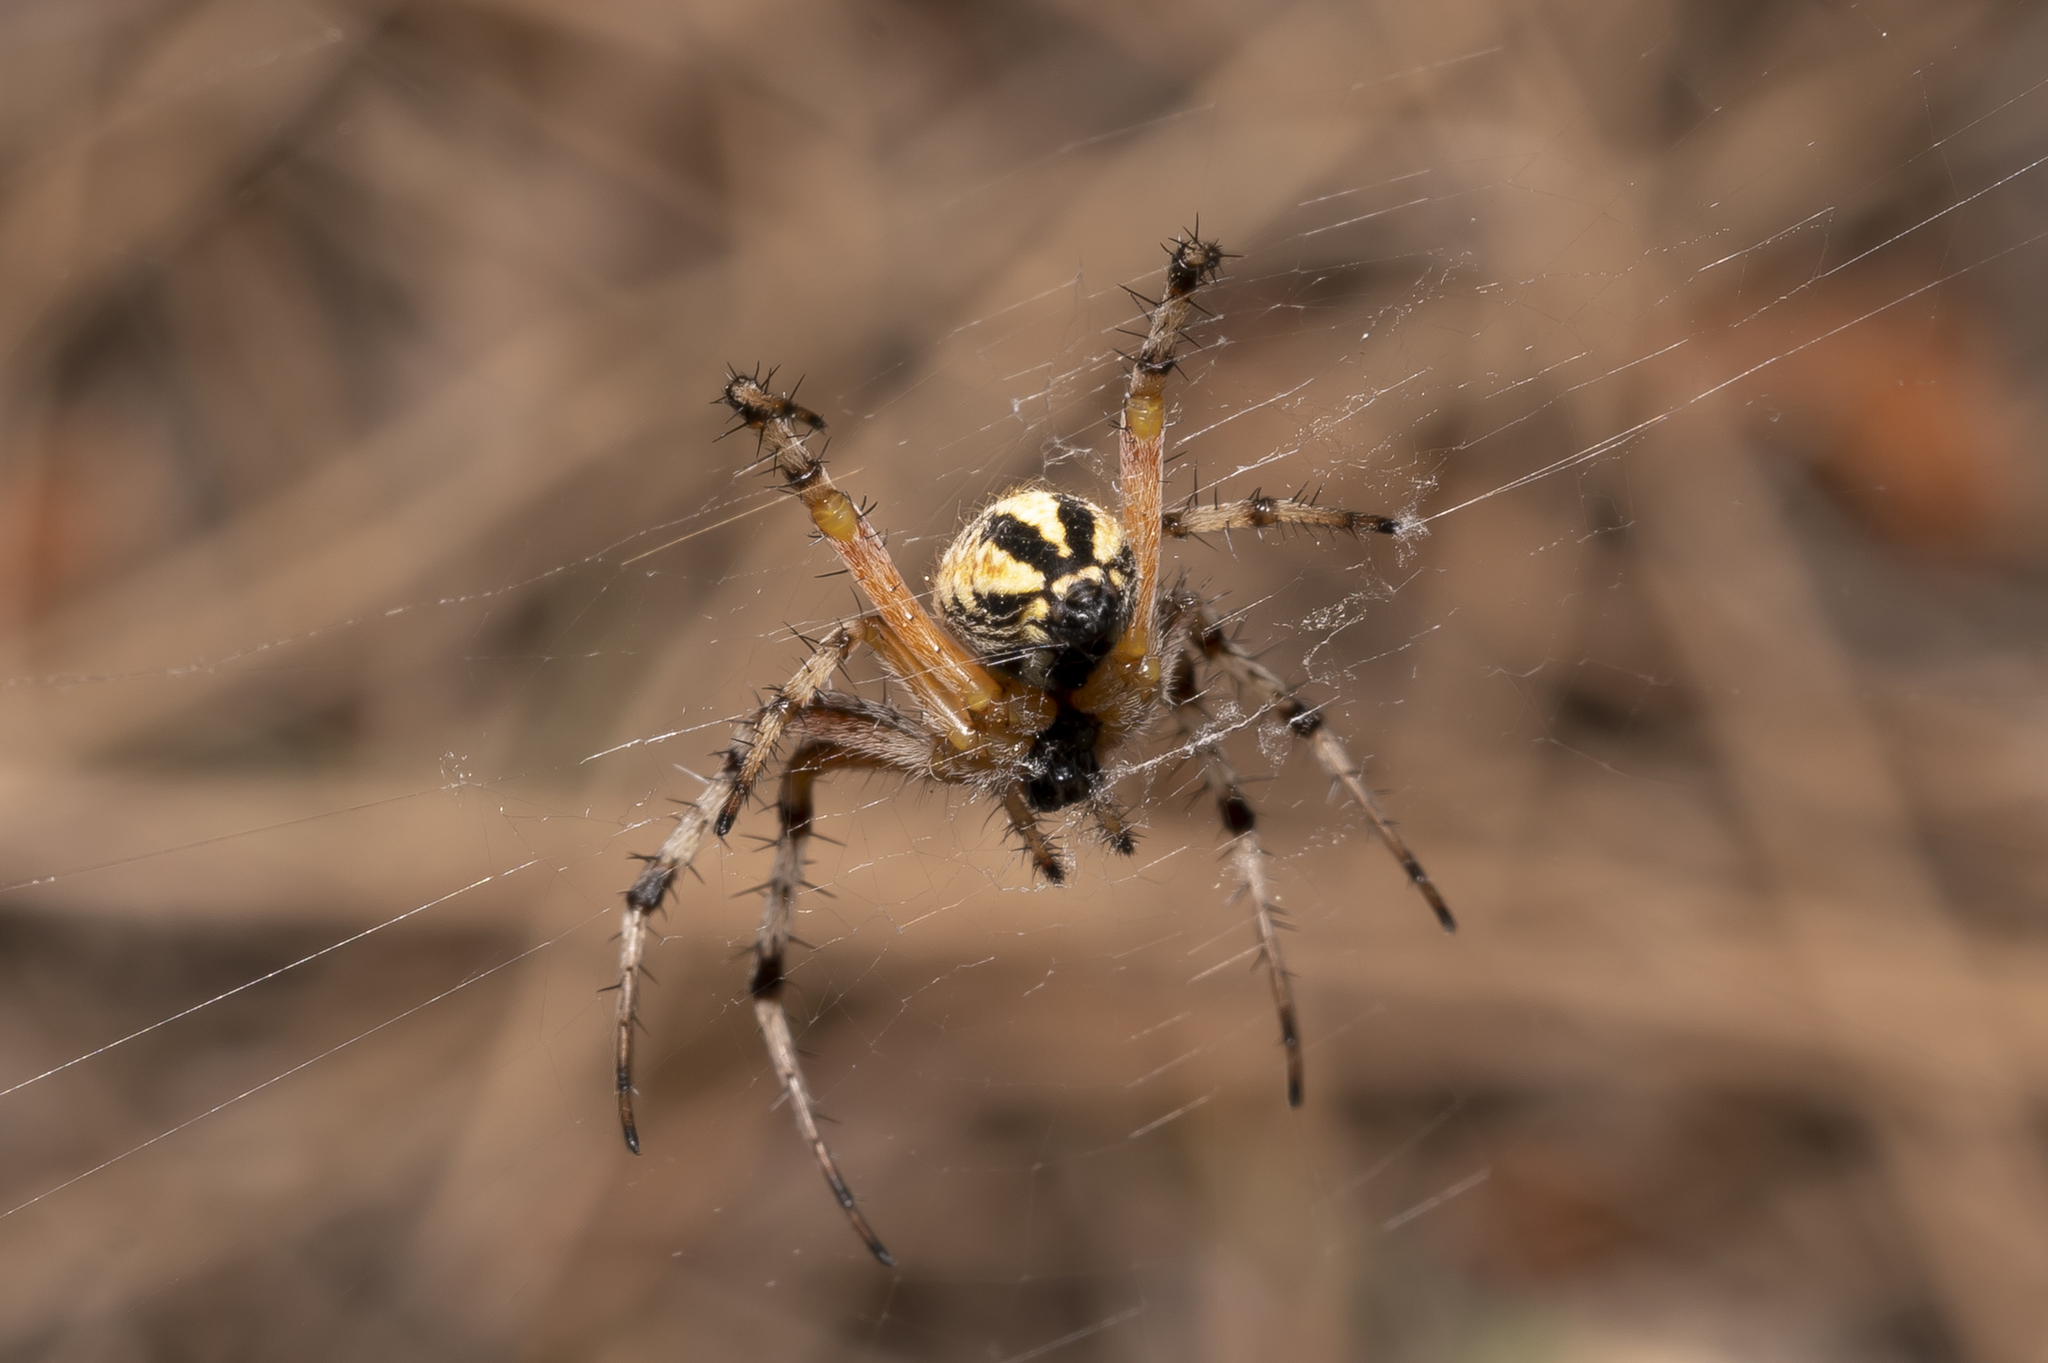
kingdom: Animalia
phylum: Arthropoda
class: Arachnida
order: Araneae
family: Araneidae
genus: Neoscona
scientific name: Neoscona adianta
